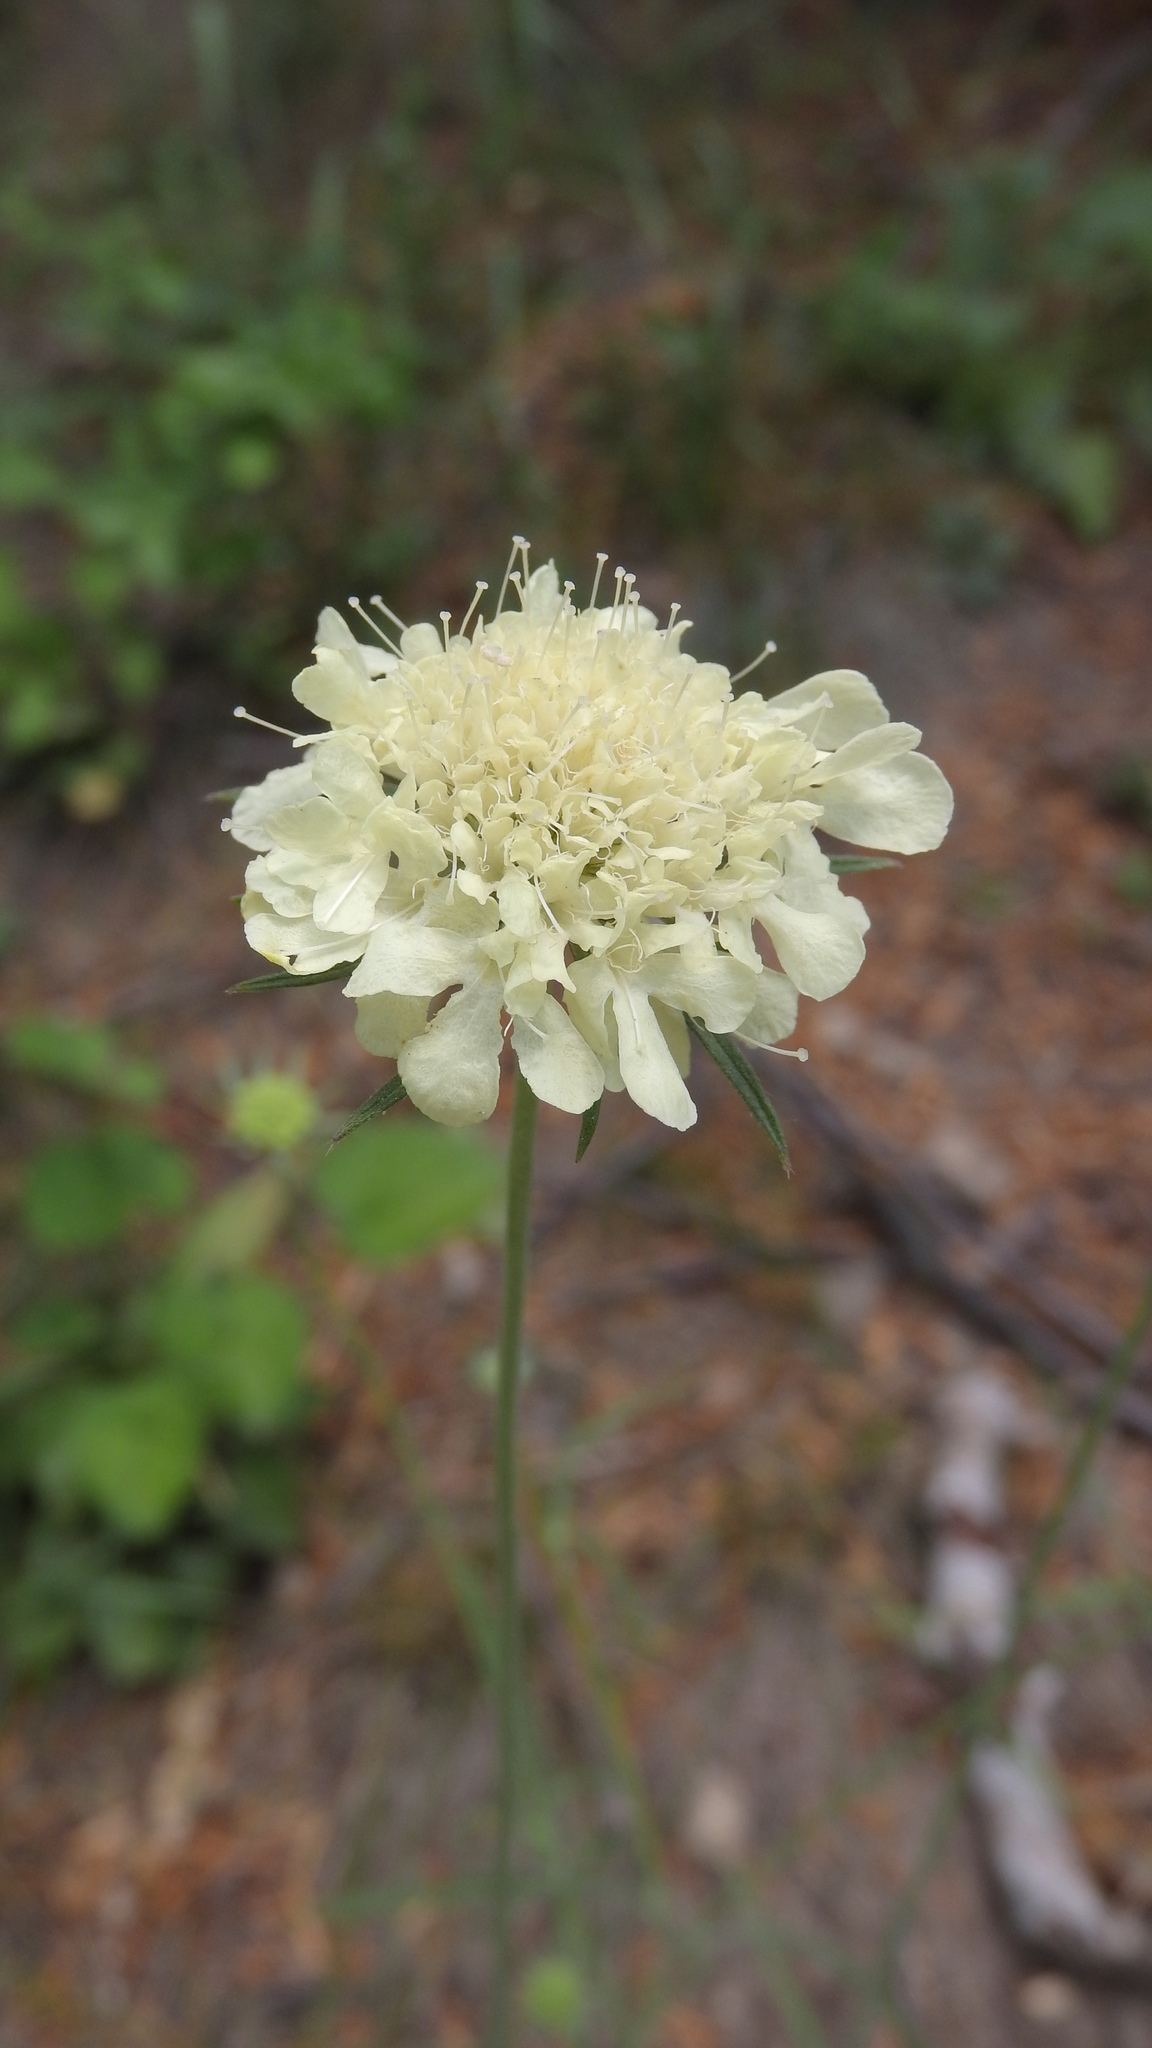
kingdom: Plantae
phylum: Tracheophyta
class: Magnoliopsida
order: Dipsacales
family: Caprifoliaceae
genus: Scabiosa
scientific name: Scabiosa ochroleuca
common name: Cream pincushions
